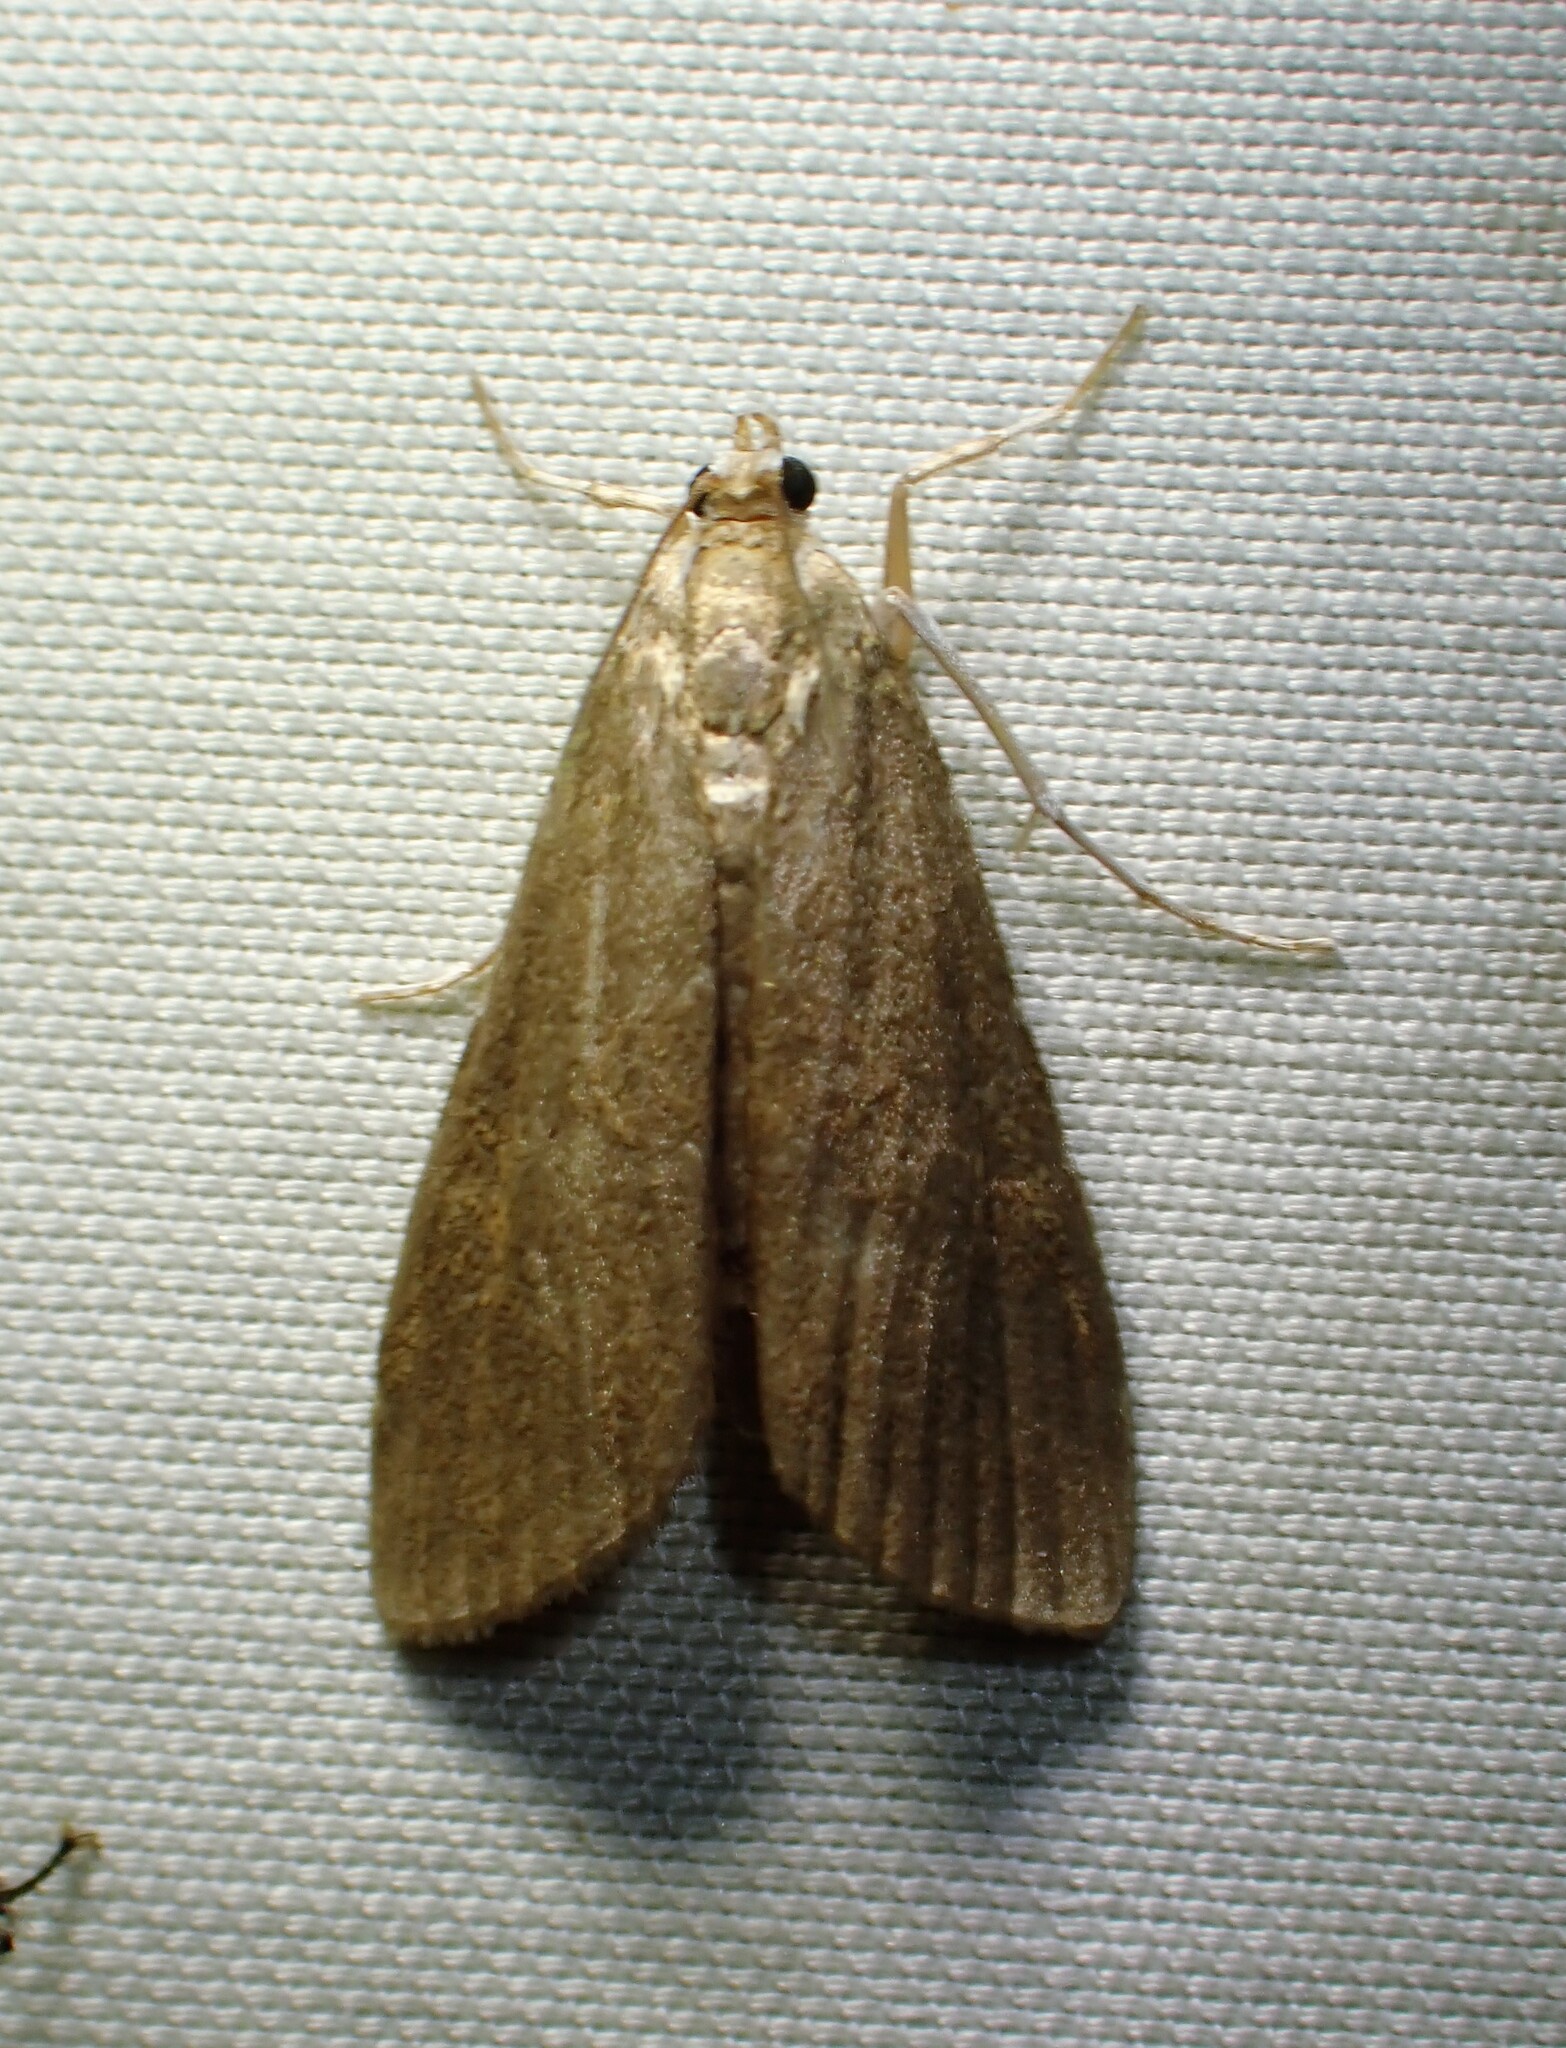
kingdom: Animalia
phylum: Arthropoda
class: Insecta
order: Lepidoptera
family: Crambidae
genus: Elophila
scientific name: Elophila gyralis
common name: Waterlily borer moth
